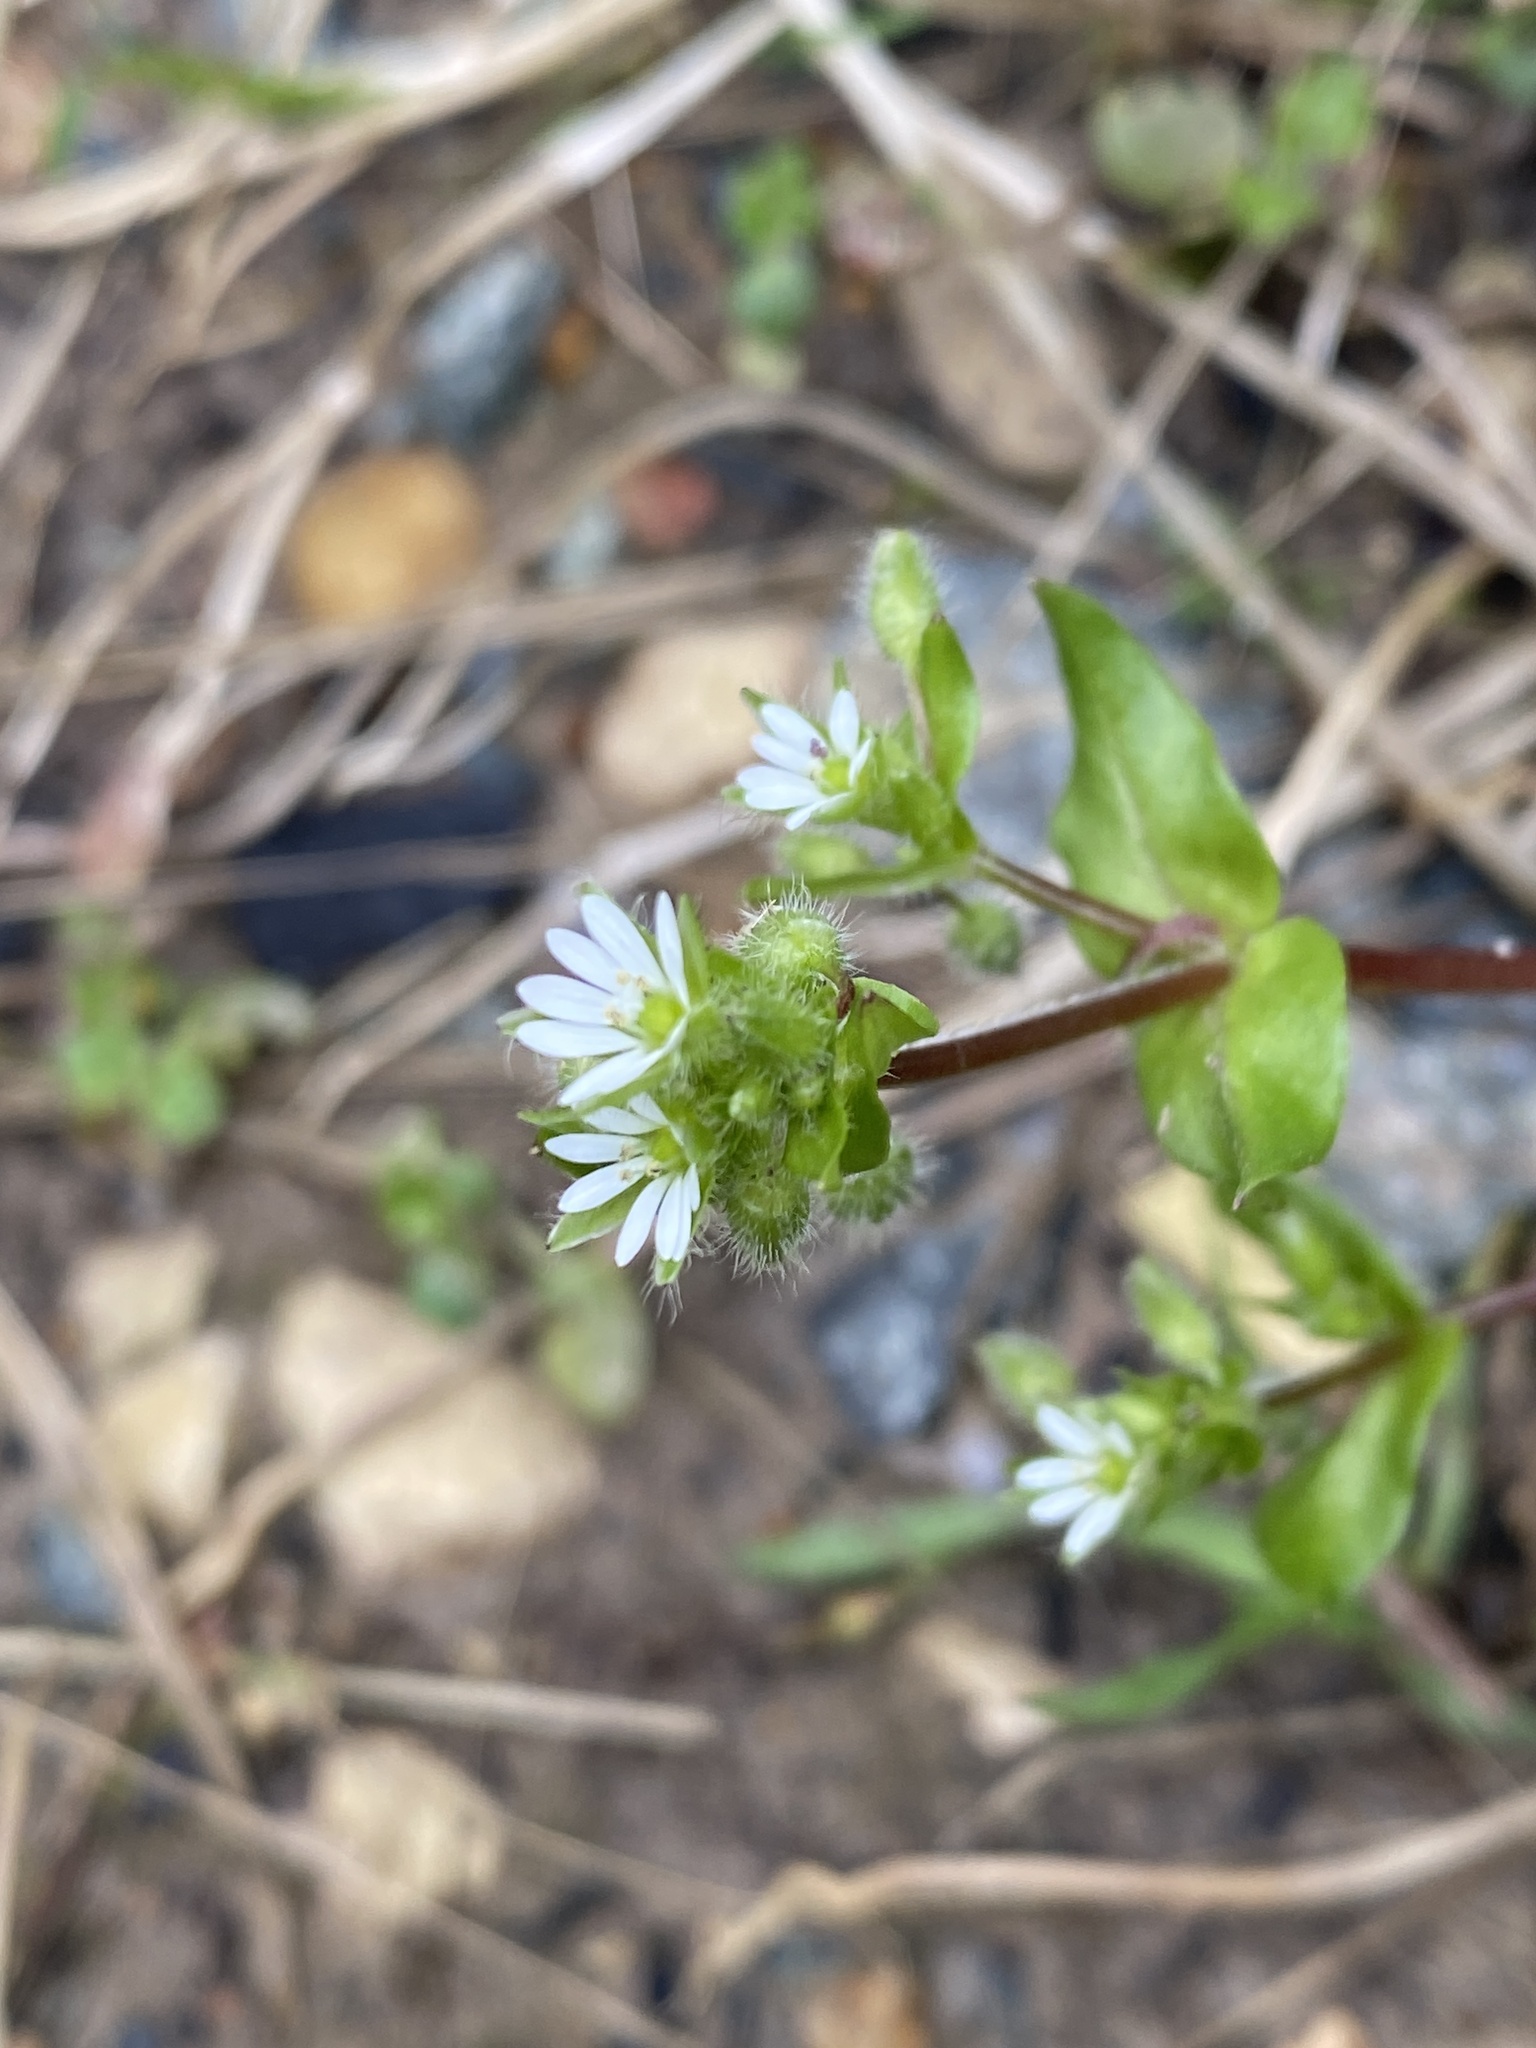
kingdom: Plantae
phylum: Tracheophyta
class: Magnoliopsida
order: Caryophyllales
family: Caryophyllaceae
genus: Stellaria
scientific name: Stellaria media
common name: Common chickweed
